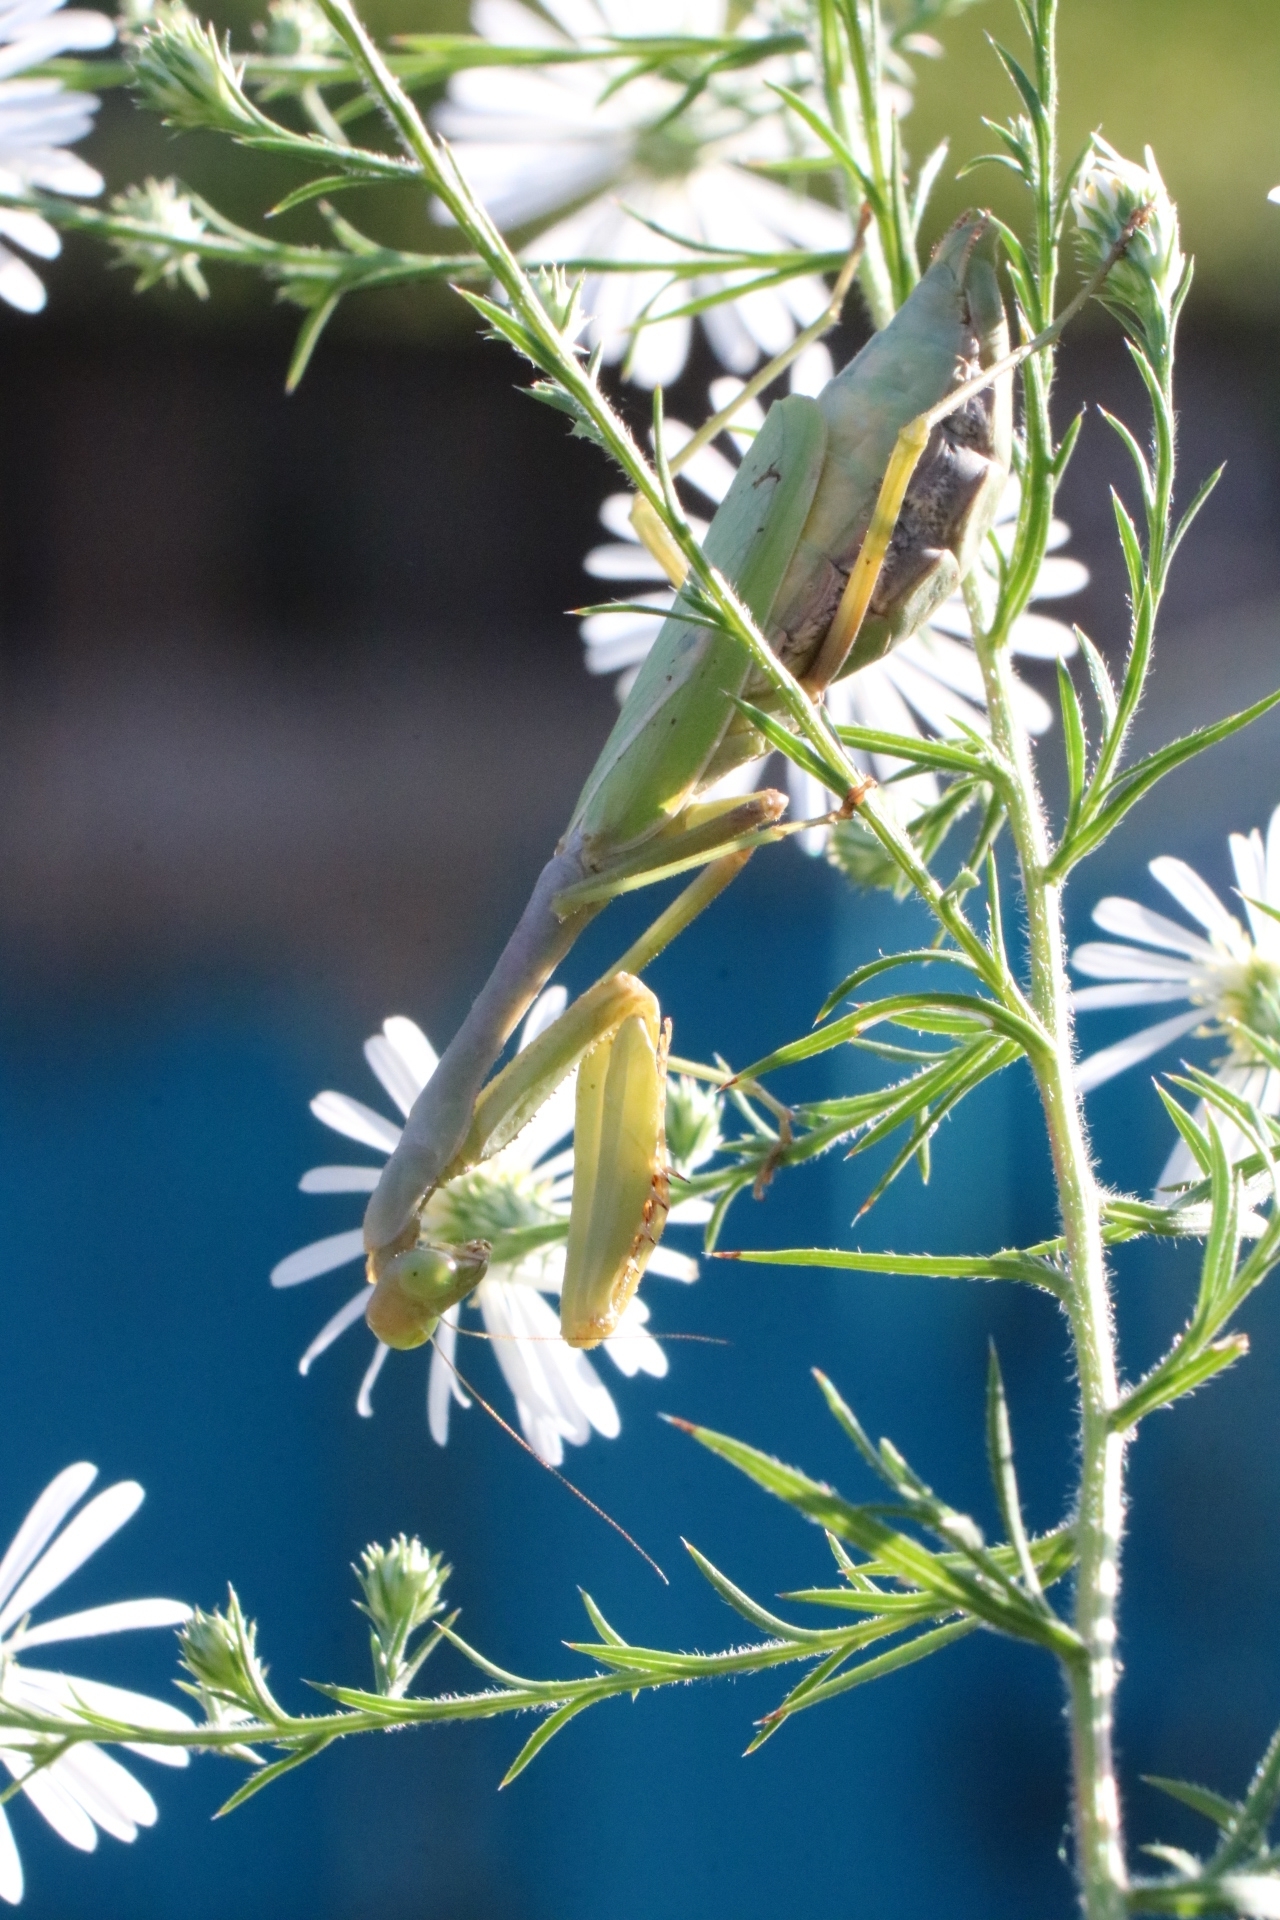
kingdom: Animalia
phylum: Arthropoda
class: Insecta
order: Mantodea
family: Mantidae
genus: Stagmomantis
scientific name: Stagmomantis carolina
